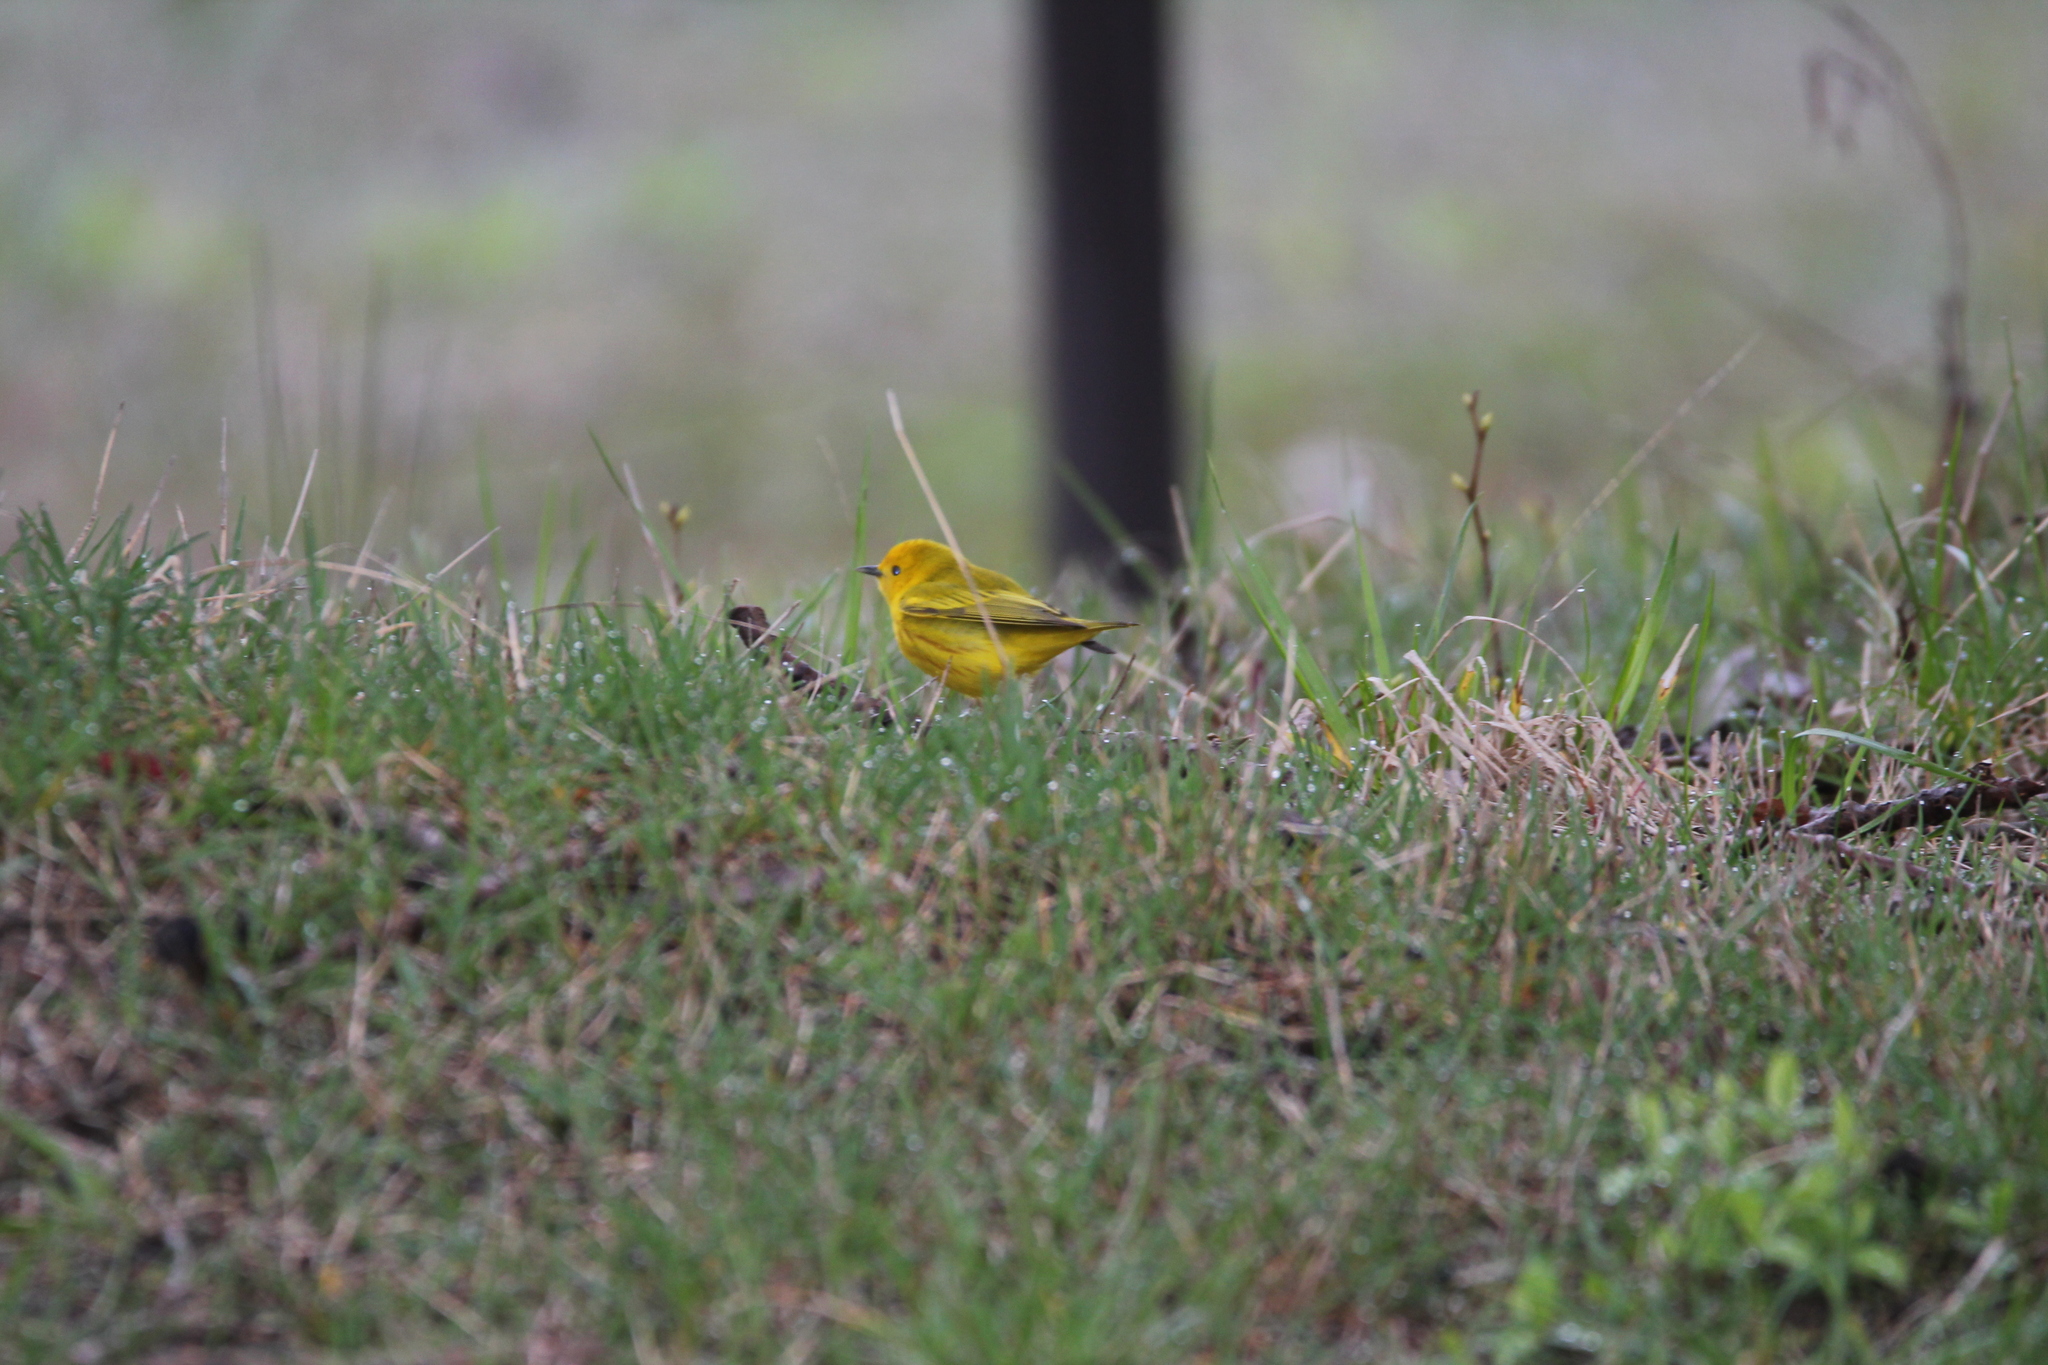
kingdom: Animalia
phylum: Chordata
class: Aves
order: Passeriformes
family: Parulidae
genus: Setophaga
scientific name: Setophaga petechia
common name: Yellow warbler
